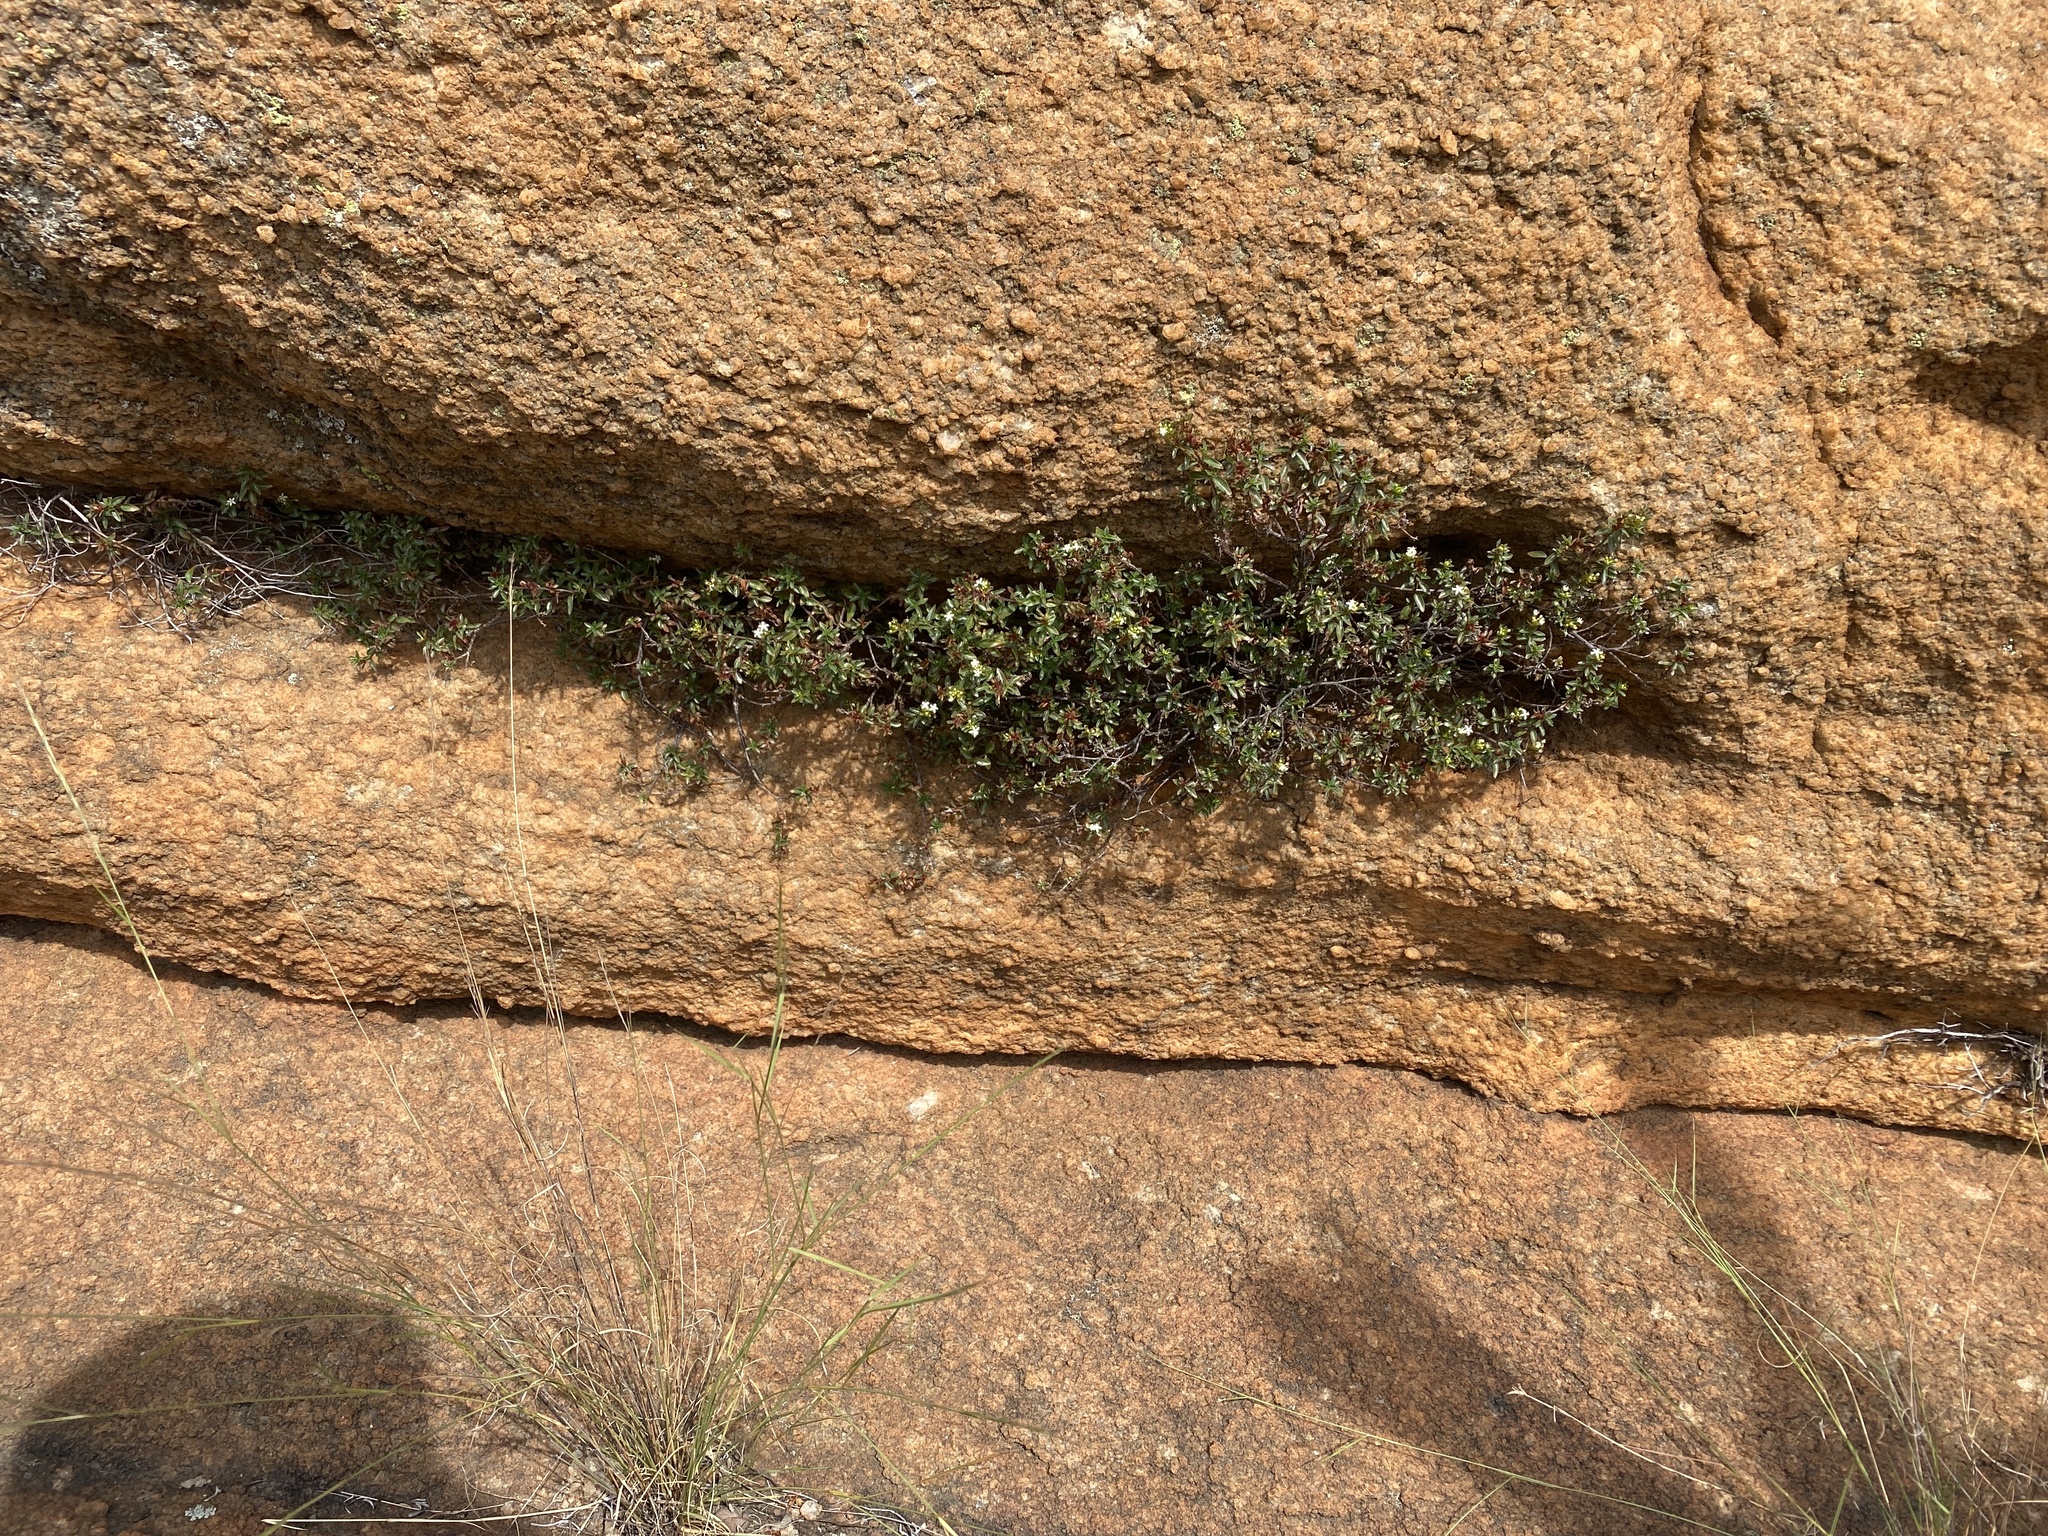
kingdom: Plantae
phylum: Tracheophyta
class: Magnoliopsida
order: Gentianales
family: Rubiaceae
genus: Otiophora
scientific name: Otiophora calycophylla
